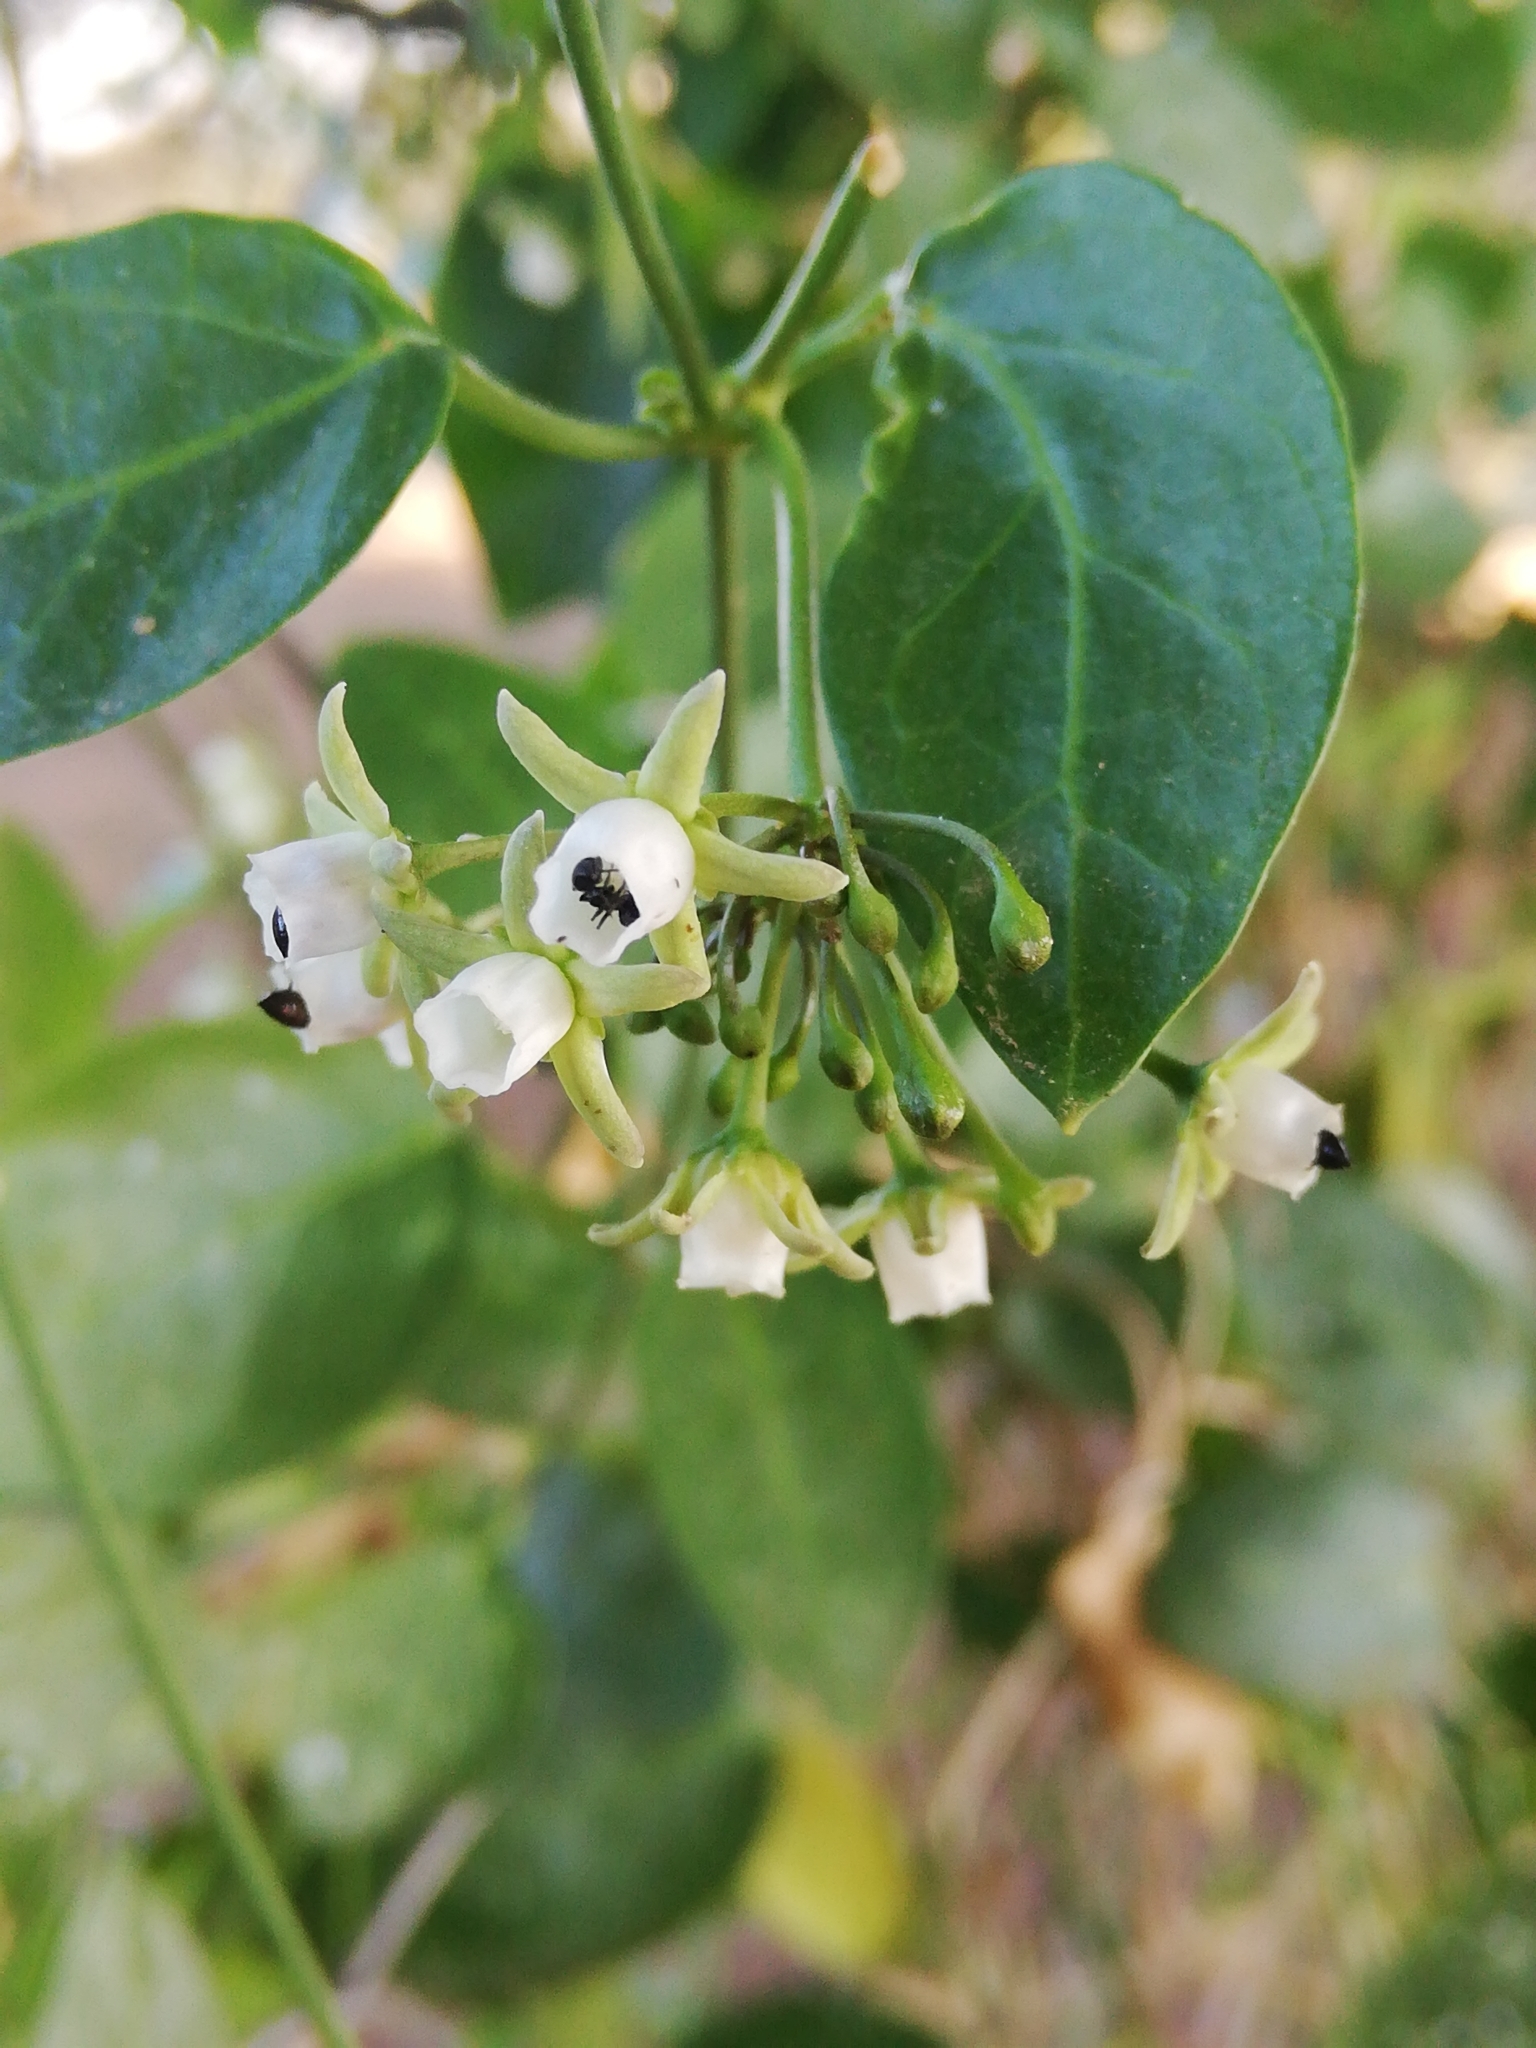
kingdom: Plantae
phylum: Tracheophyta
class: Magnoliopsida
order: Gentianales
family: Apocynaceae
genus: Cynanchum
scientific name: Cynanchum ellipticum
